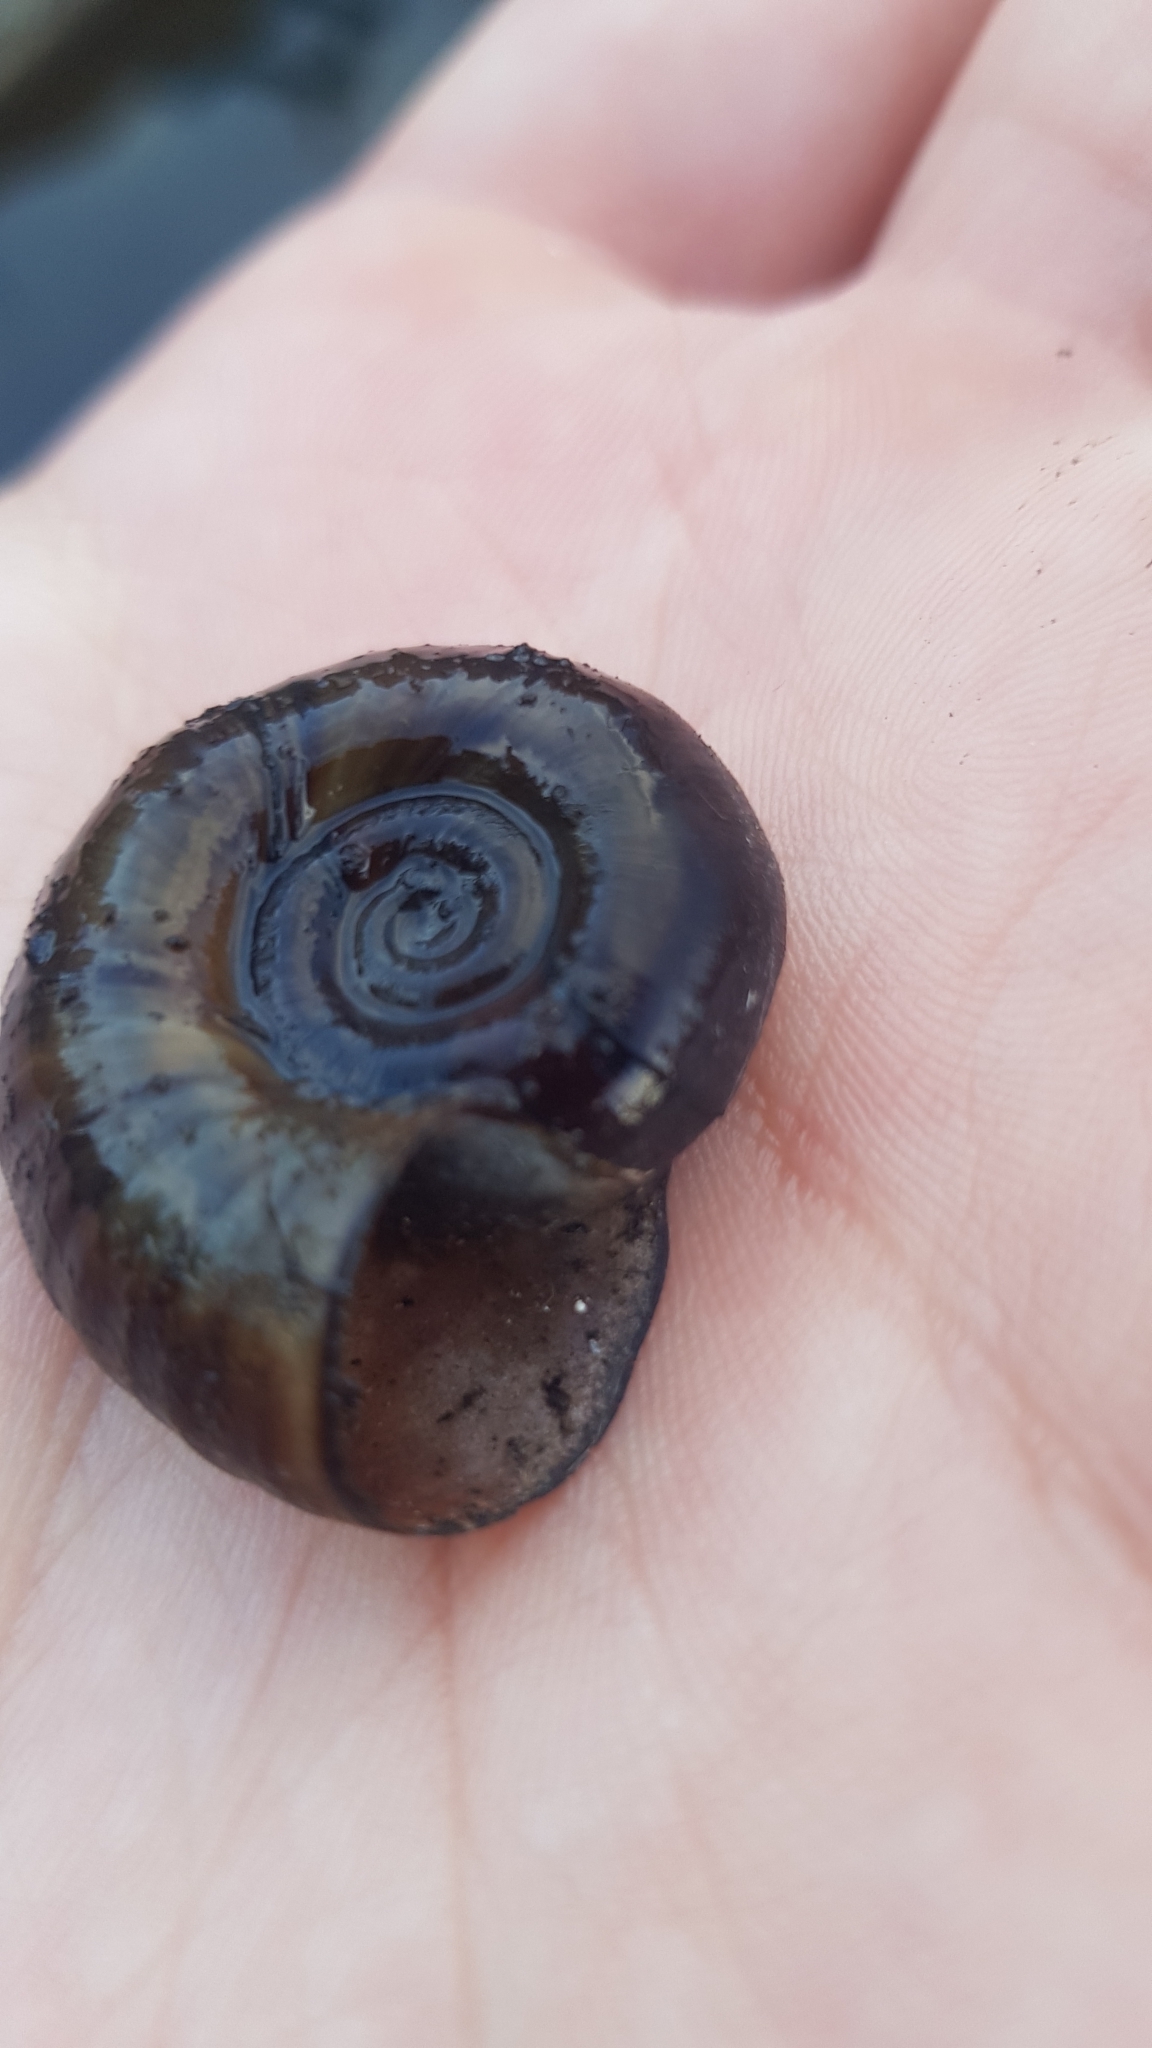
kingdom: Animalia
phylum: Mollusca
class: Gastropoda
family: Planorbidae
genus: Planorbarius
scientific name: Planorbarius corneus
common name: Great ramshorn
